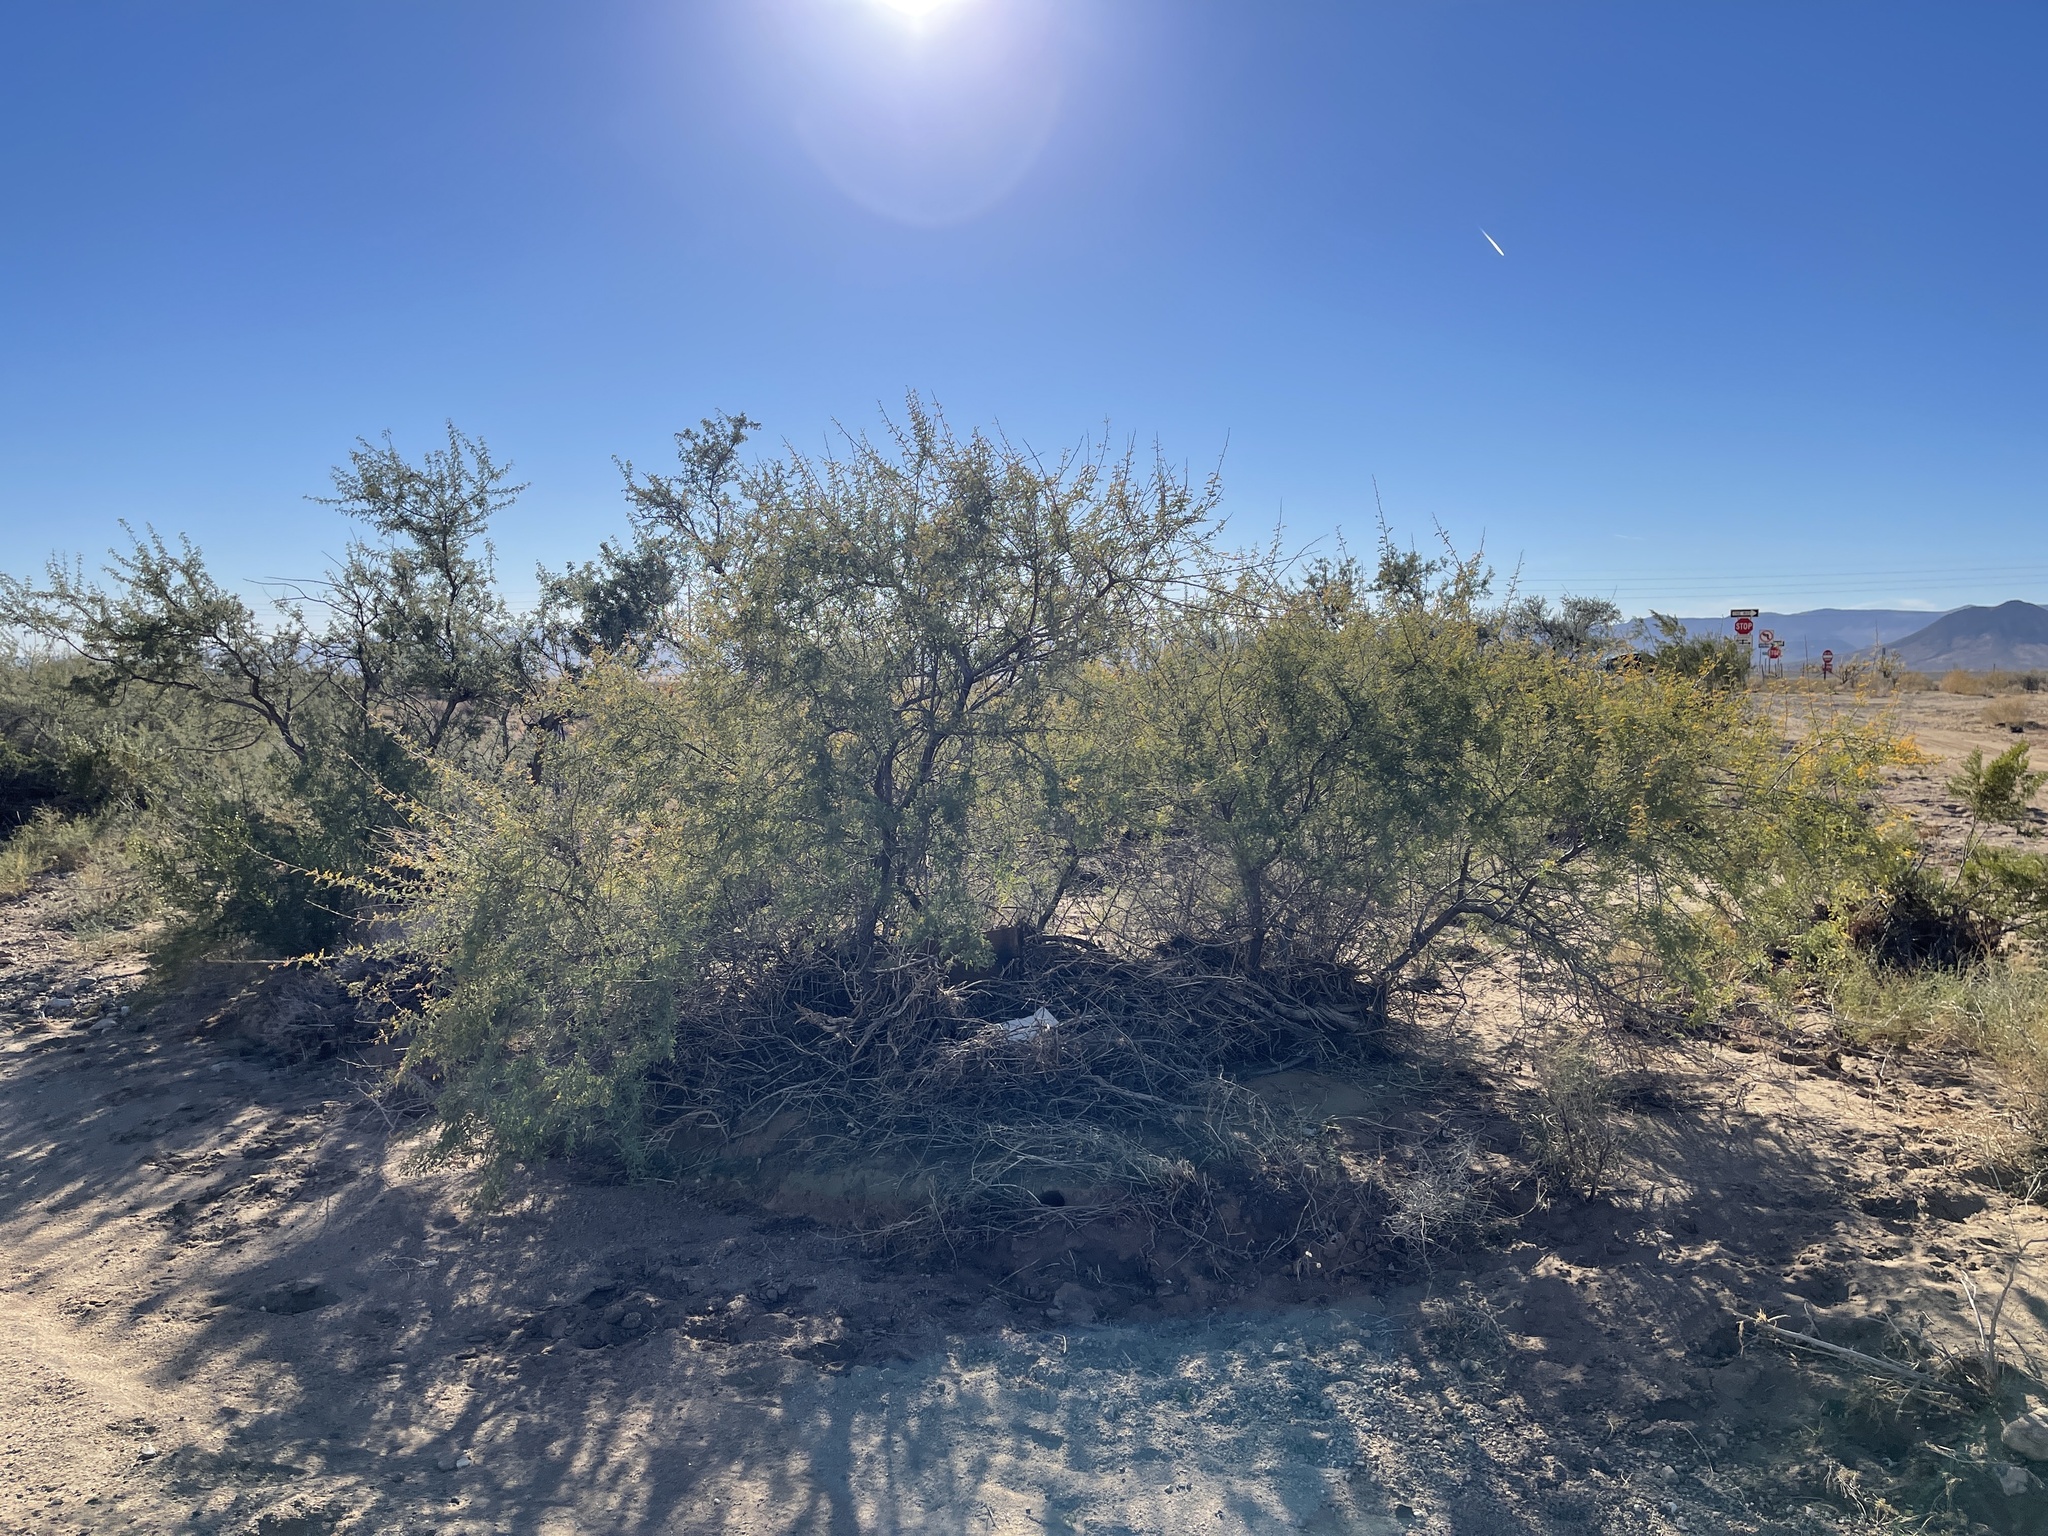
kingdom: Plantae
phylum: Tracheophyta
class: Magnoliopsida
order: Fabales
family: Fabaceae
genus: Senegalia
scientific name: Senegalia greggii
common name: Texas-mimosa
